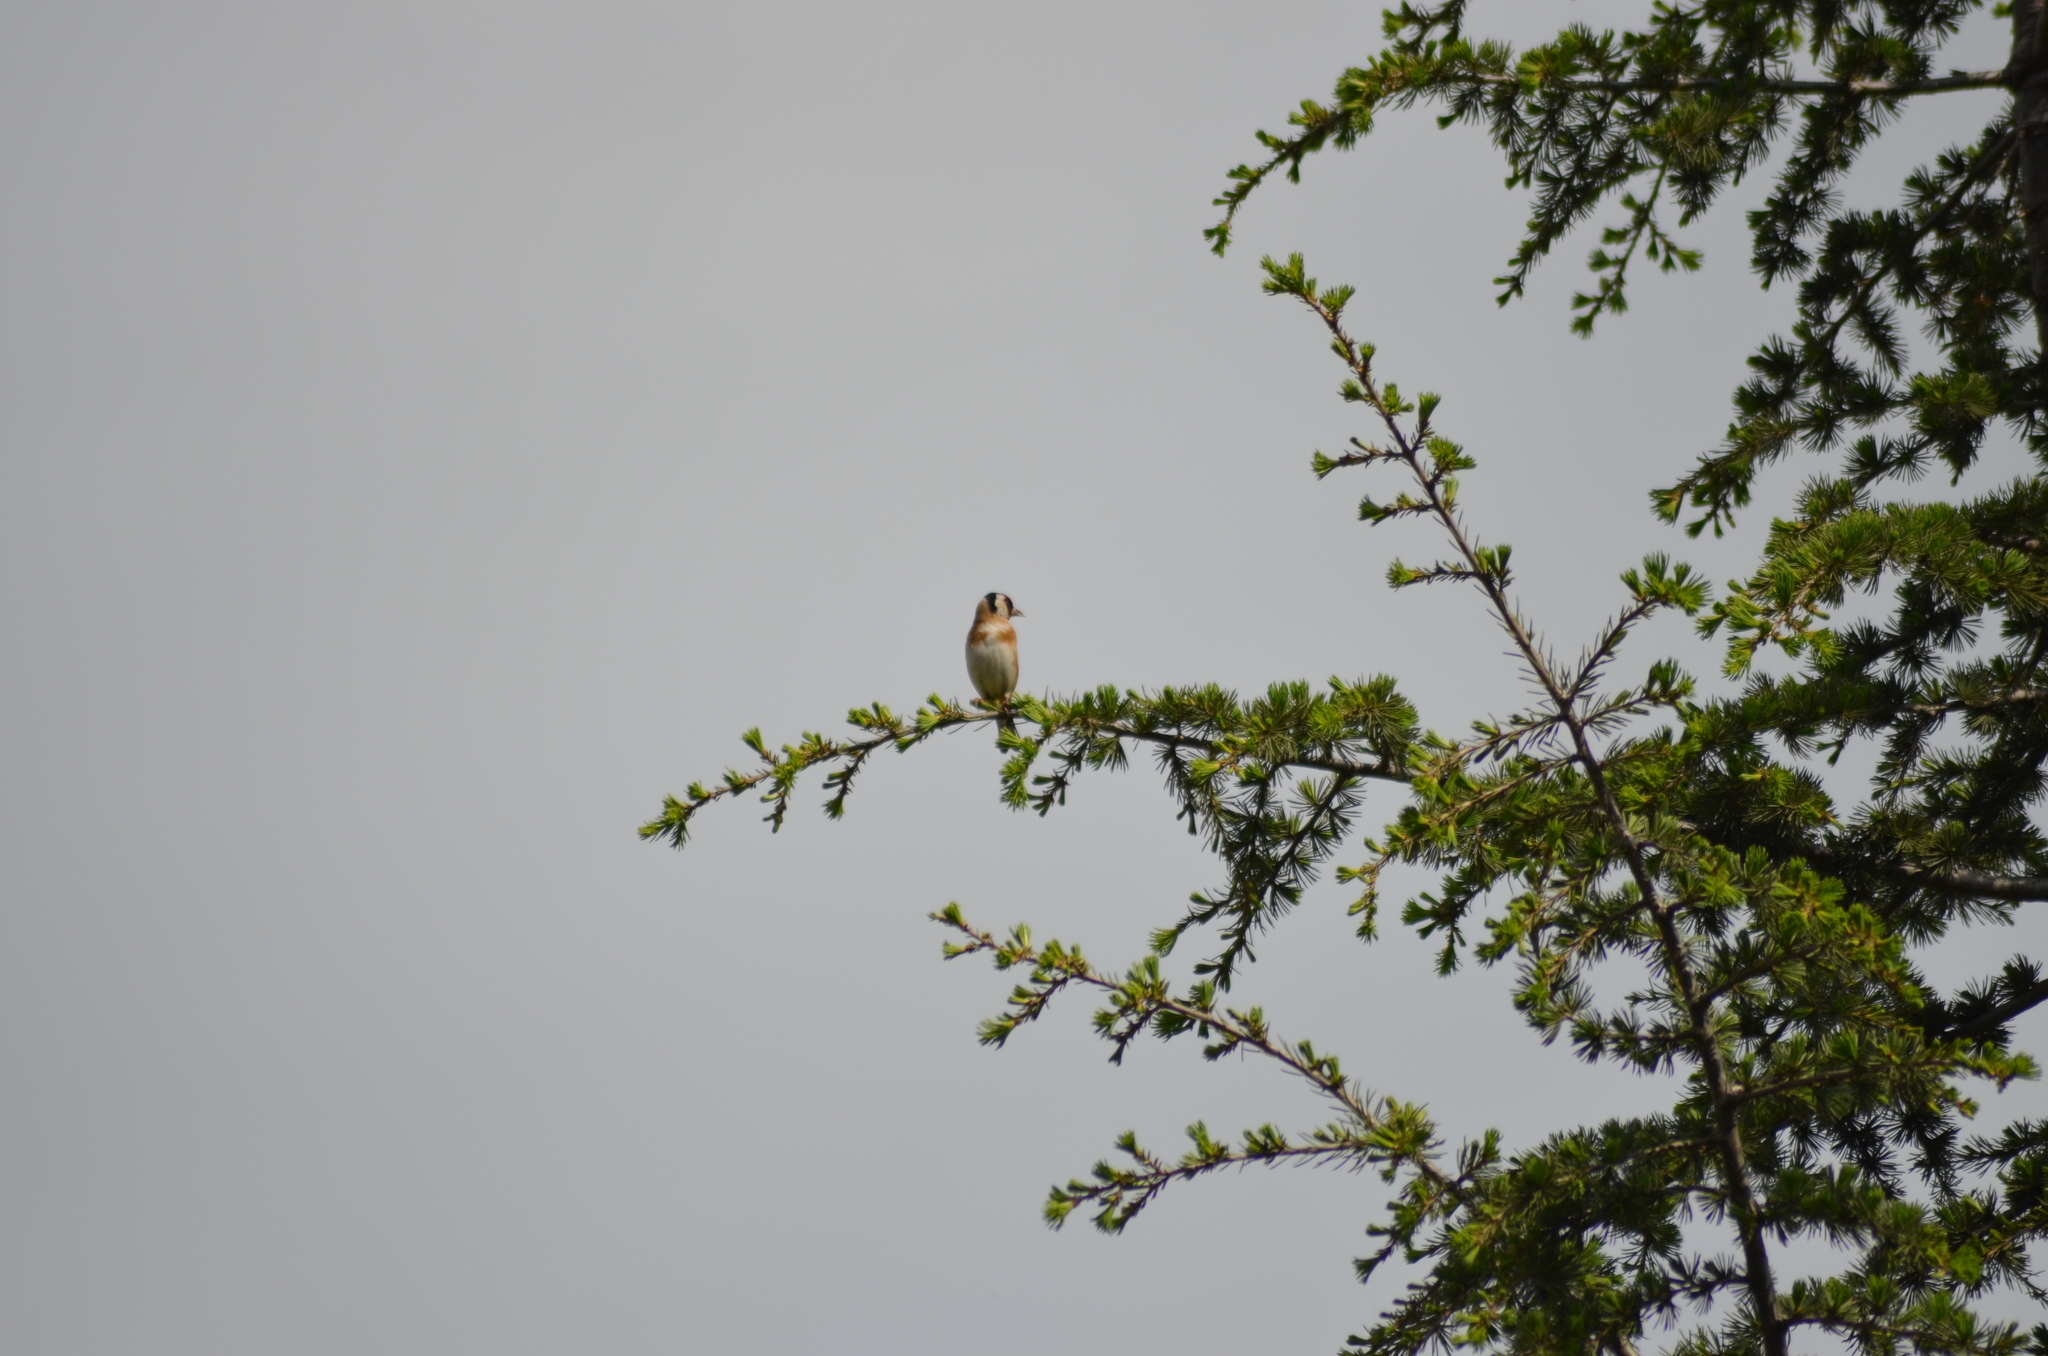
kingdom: Animalia
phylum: Chordata
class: Aves
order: Passeriformes
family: Fringillidae
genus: Carduelis
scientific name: Carduelis carduelis
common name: European goldfinch
